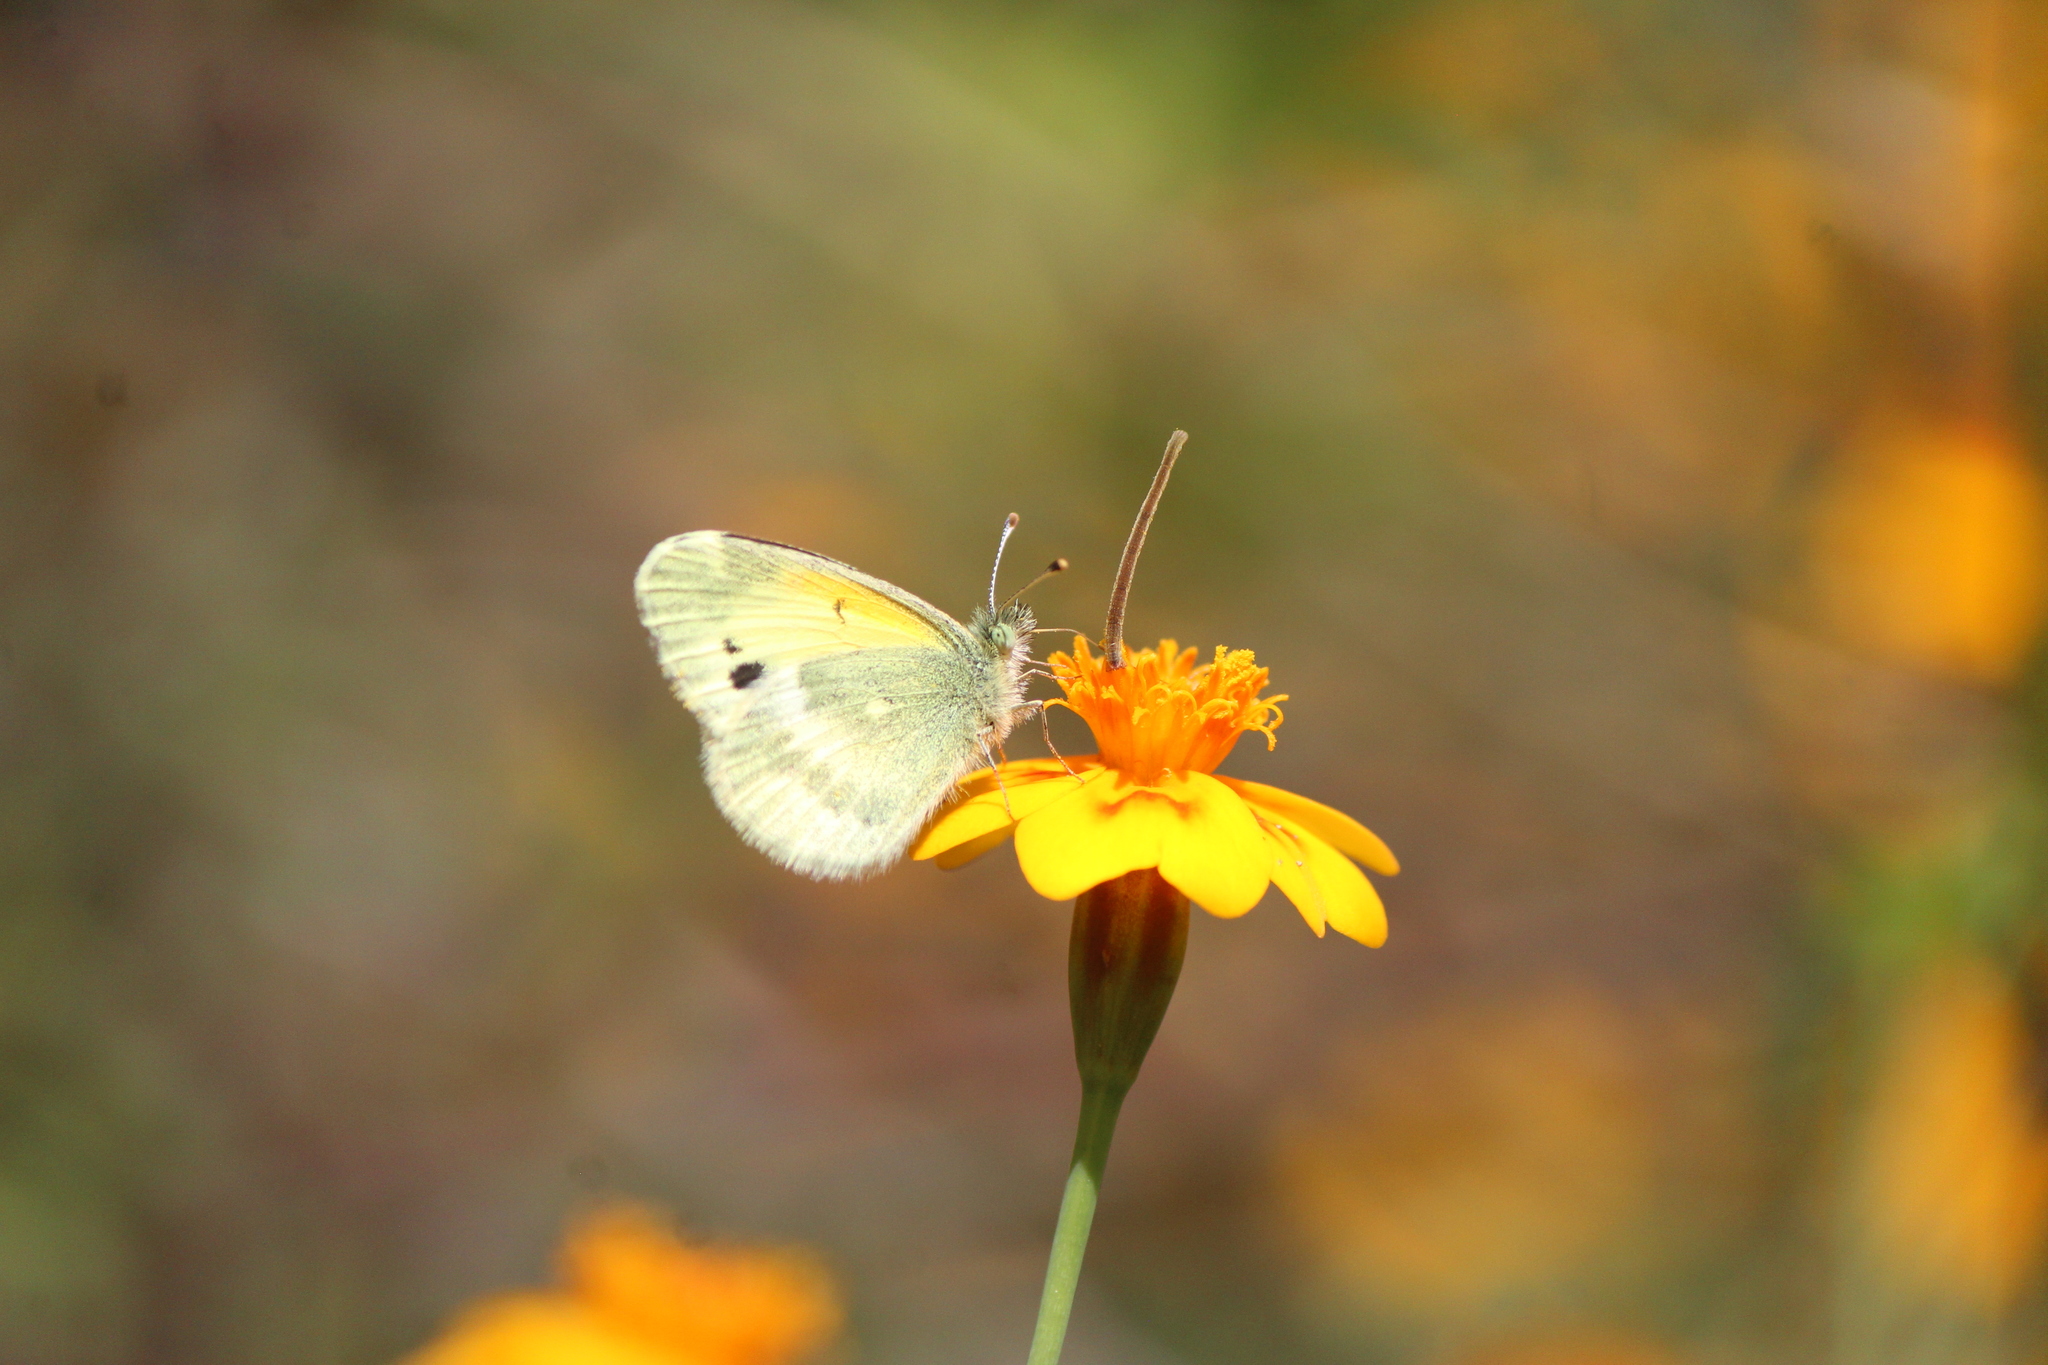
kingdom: Animalia
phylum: Arthropoda
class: Insecta
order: Lepidoptera
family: Pieridae
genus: Nathalis
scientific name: Nathalis iole
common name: Dainty sulphur
